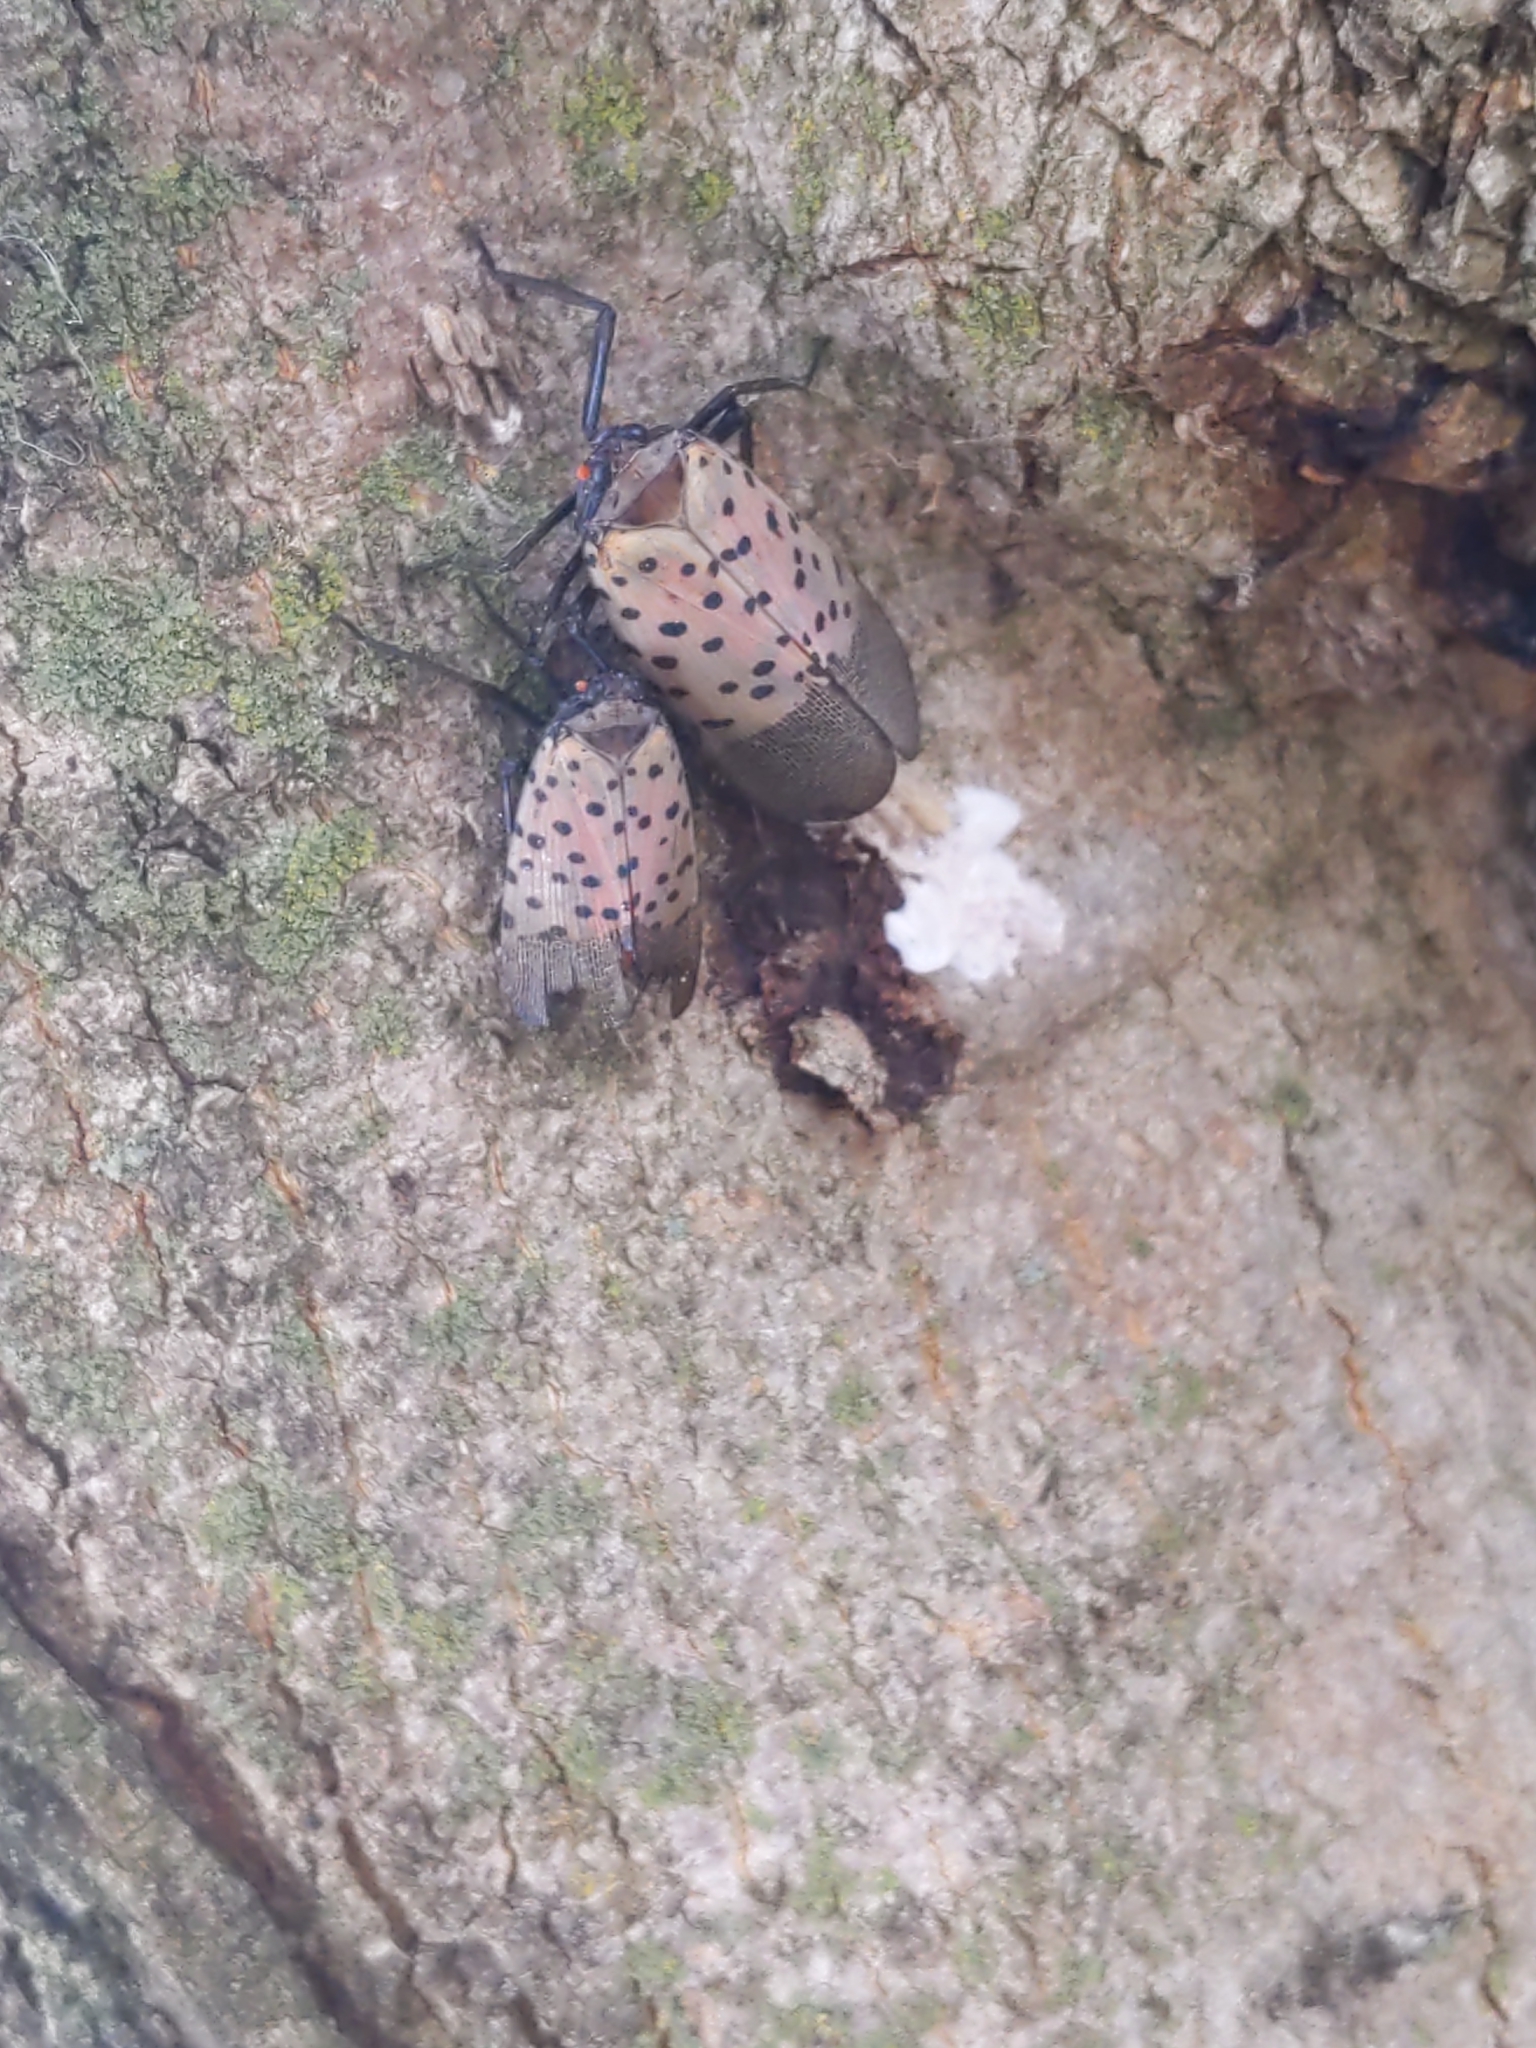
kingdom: Animalia
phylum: Arthropoda
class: Insecta
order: Hemiptera
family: Fulgoridae
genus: Lycorma
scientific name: Lycorma delicatula
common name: Spotted lanternfly
